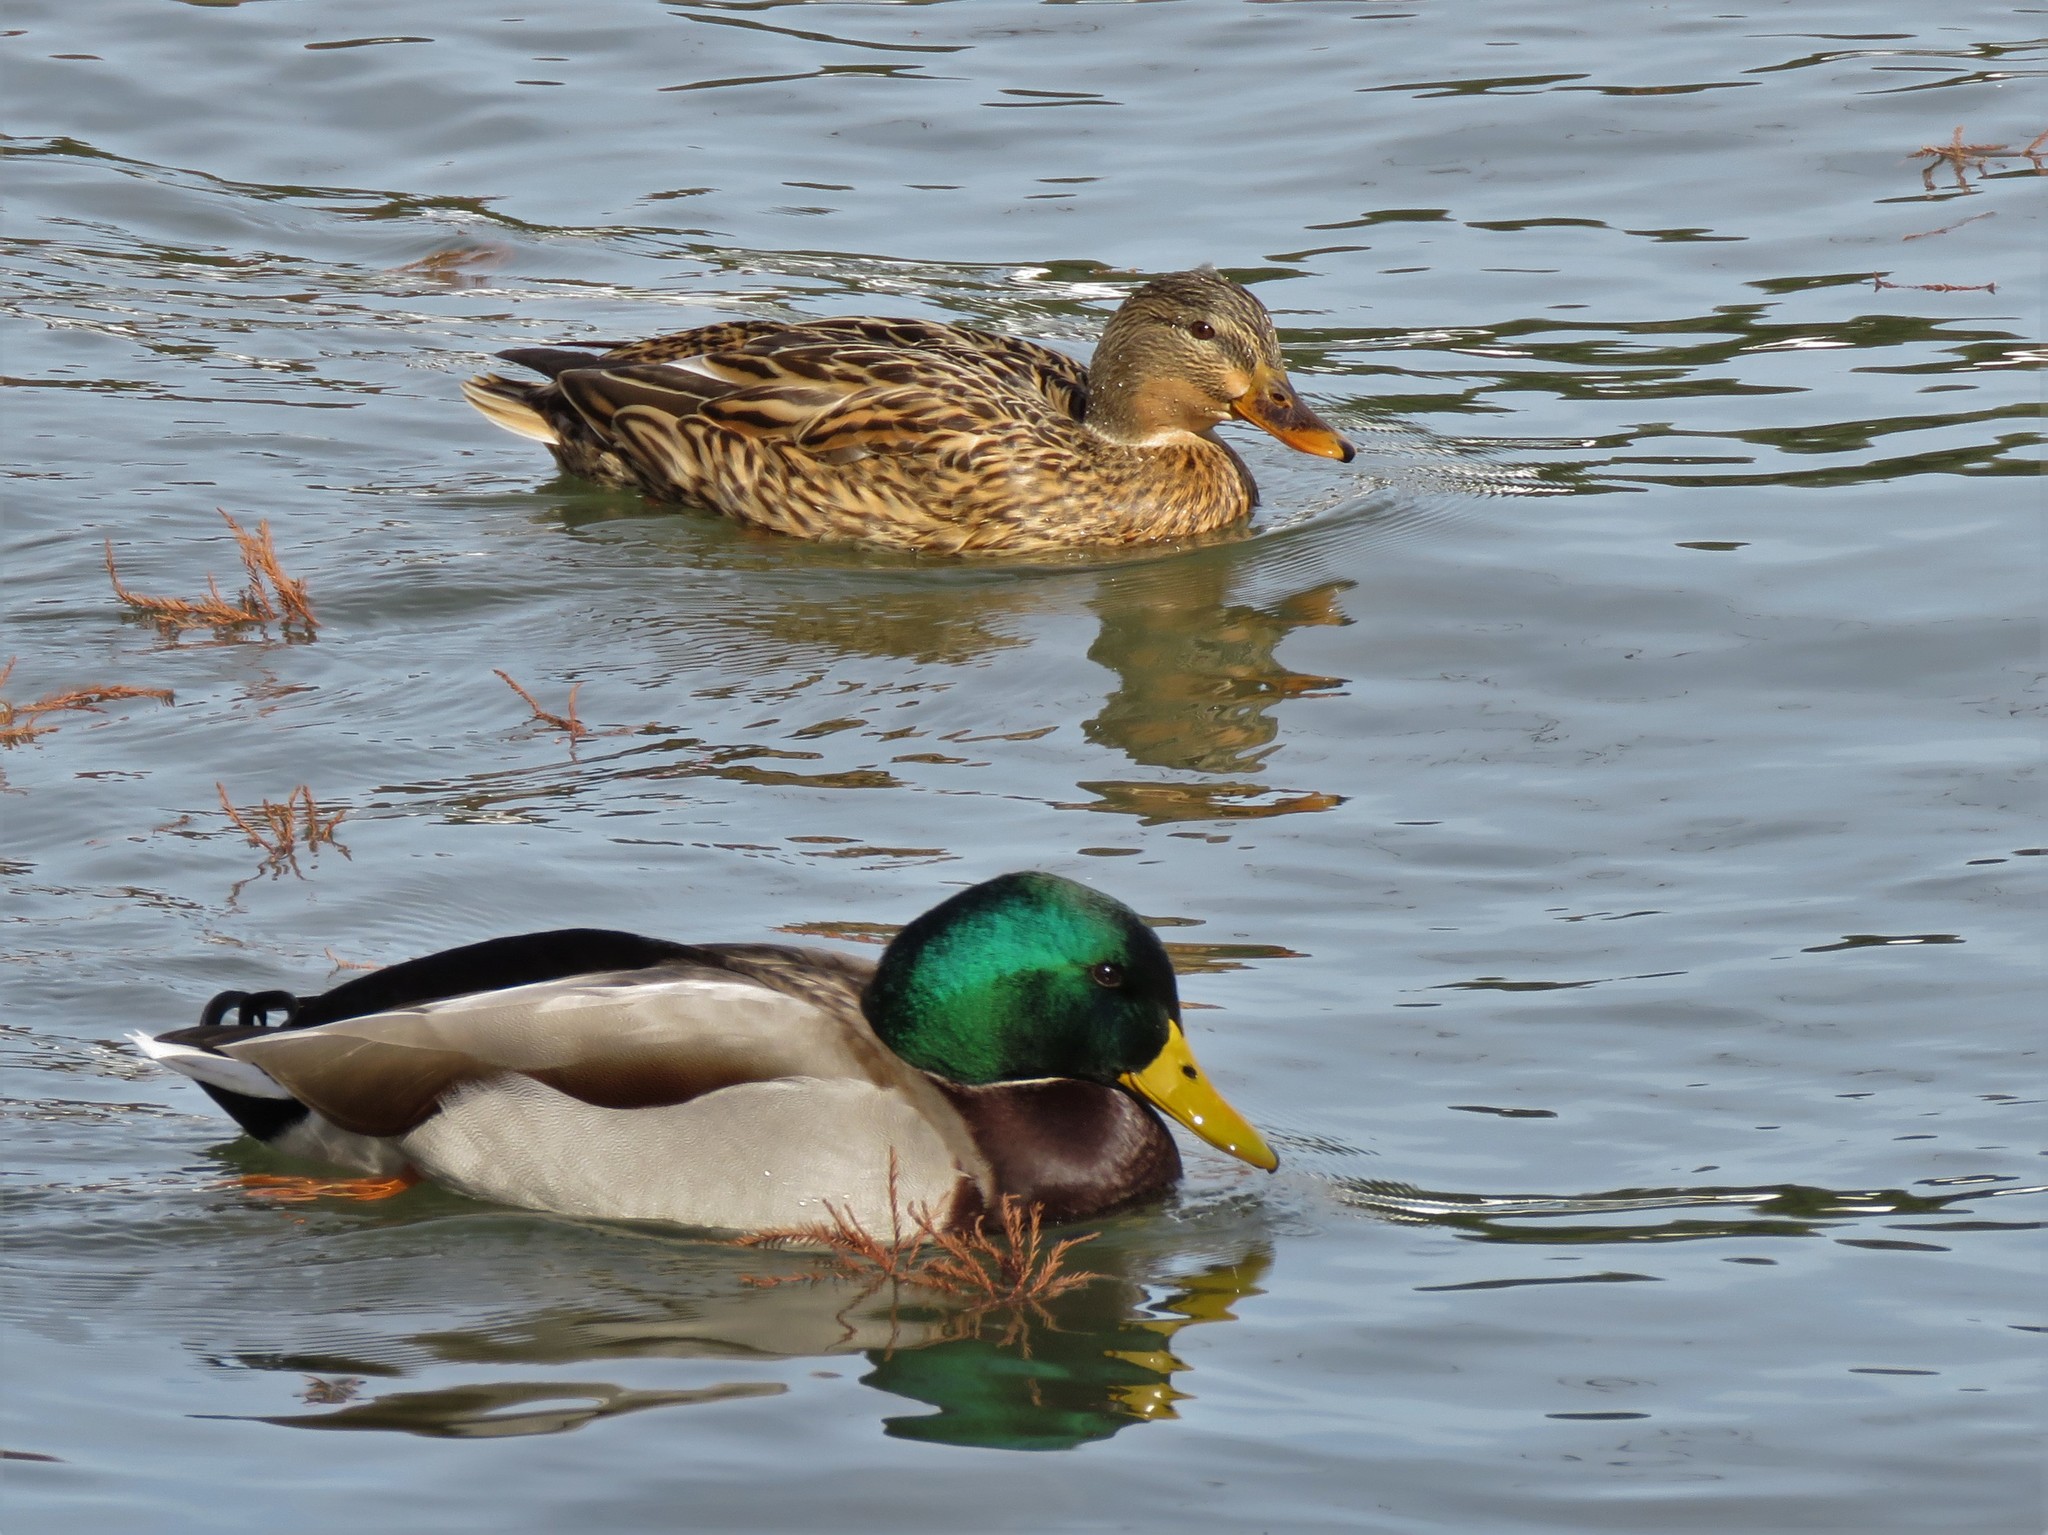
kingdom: Animalia
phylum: Chordata
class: Aves
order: Anseriformes
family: Anatidae
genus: Anas
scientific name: Anas platyrhynchos
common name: Mallard
